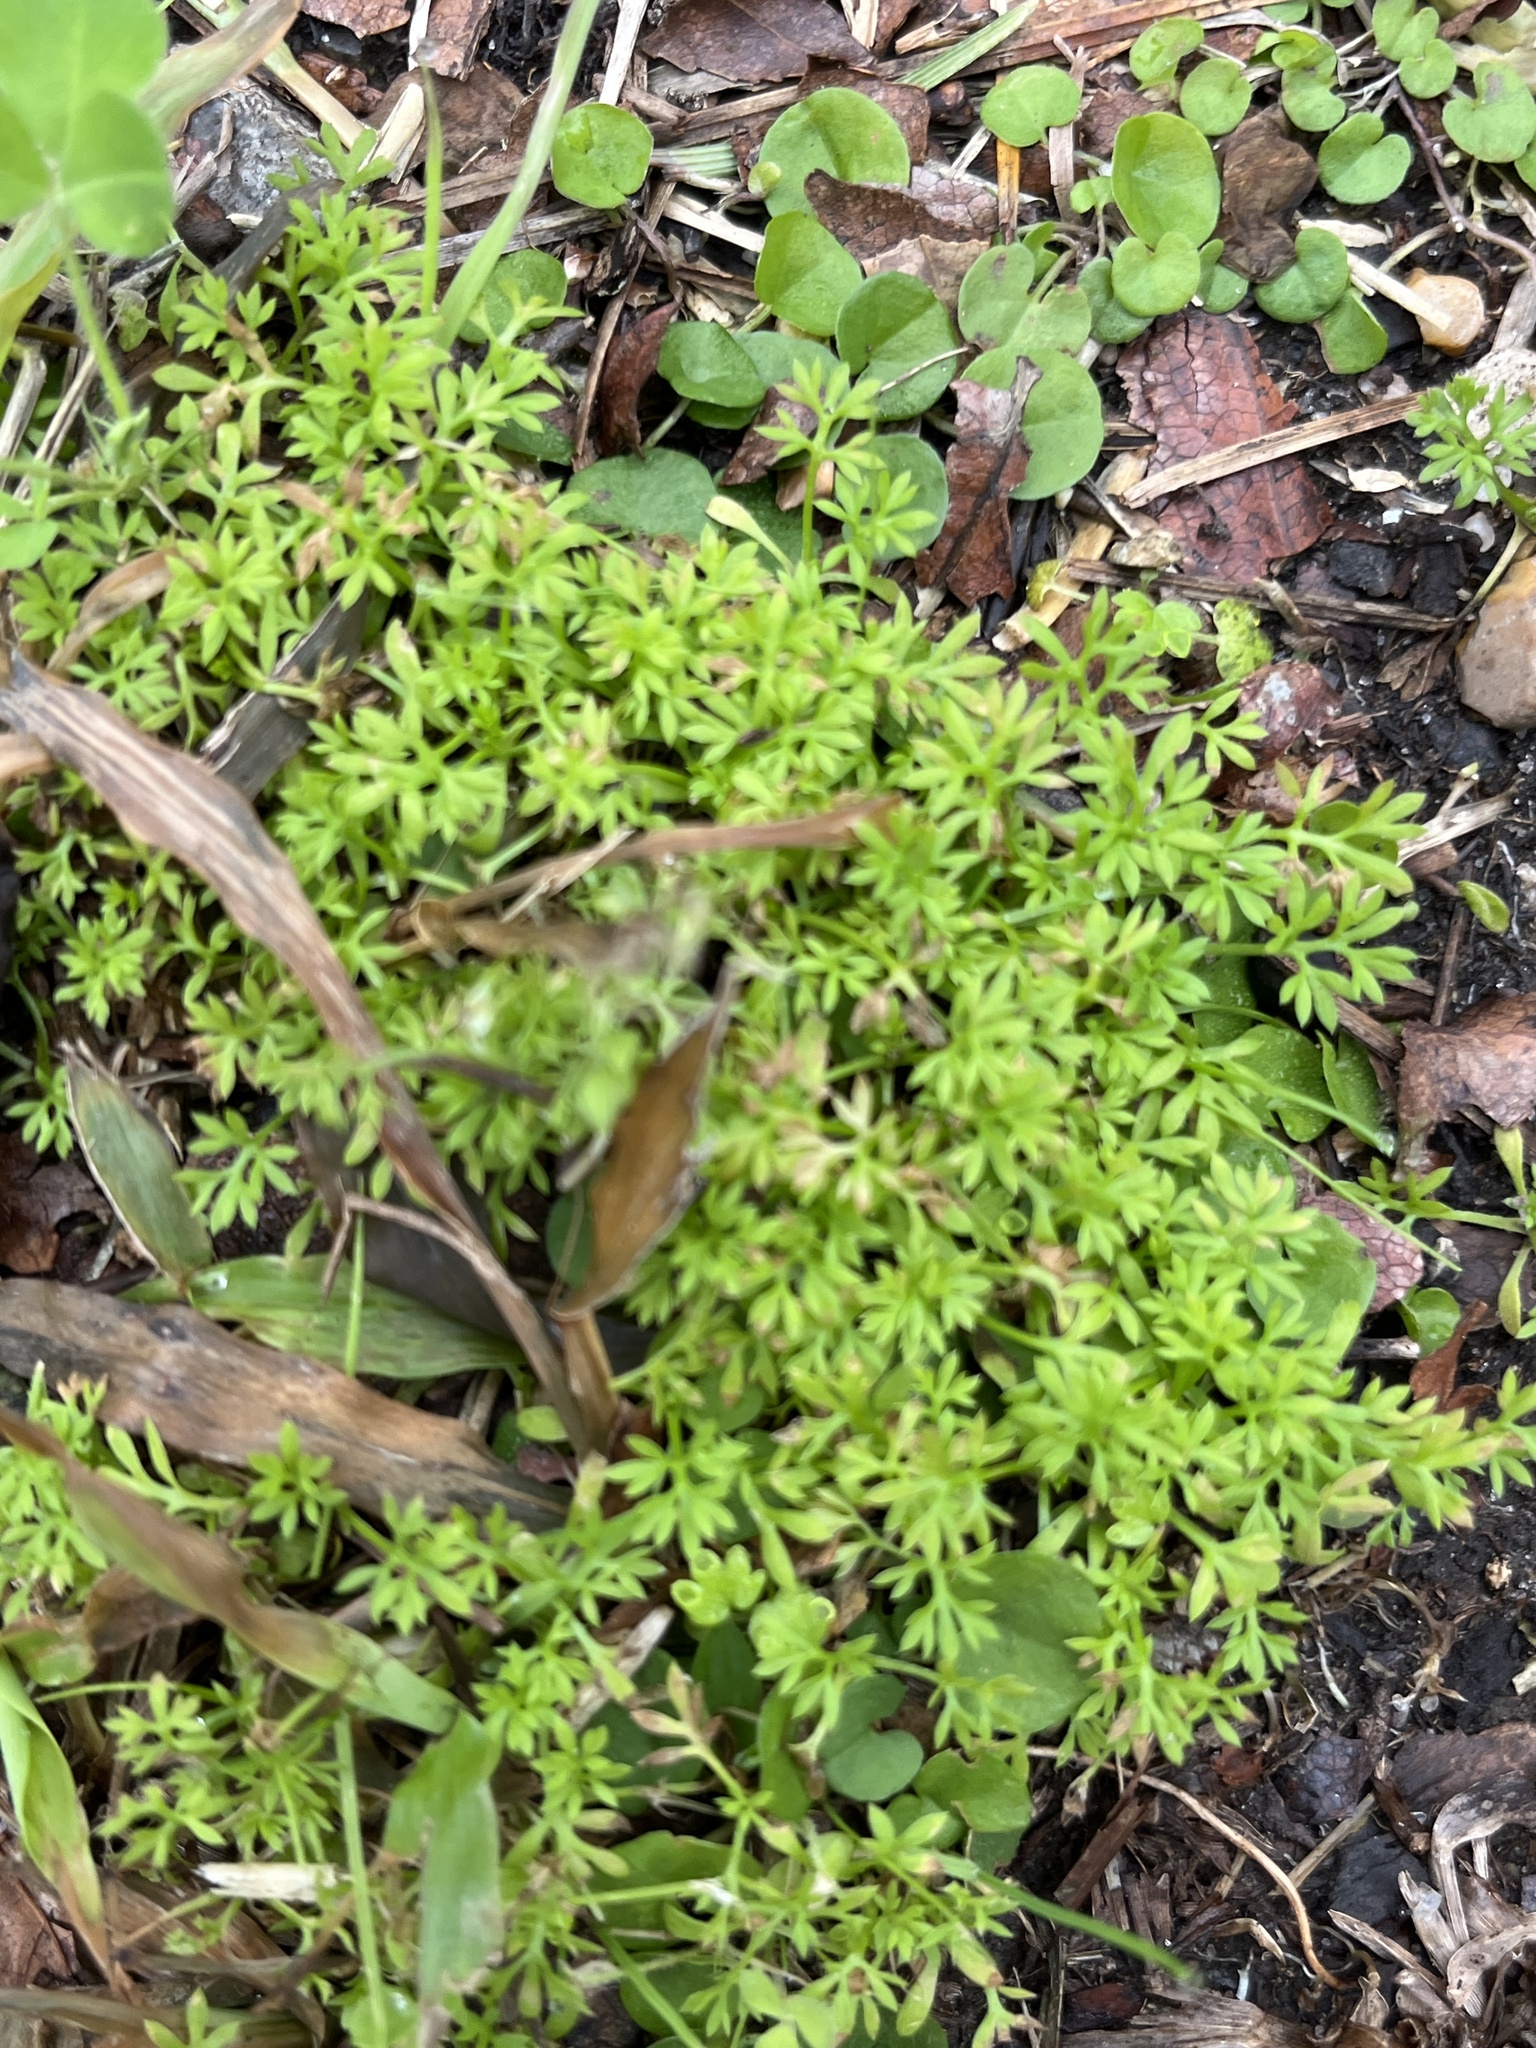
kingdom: Plantae
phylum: Tracheophyta
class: Magnoliopsida
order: Asterales
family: Asteraceae
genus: Soliva
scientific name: Soliva sessilis
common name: Field burrweed
